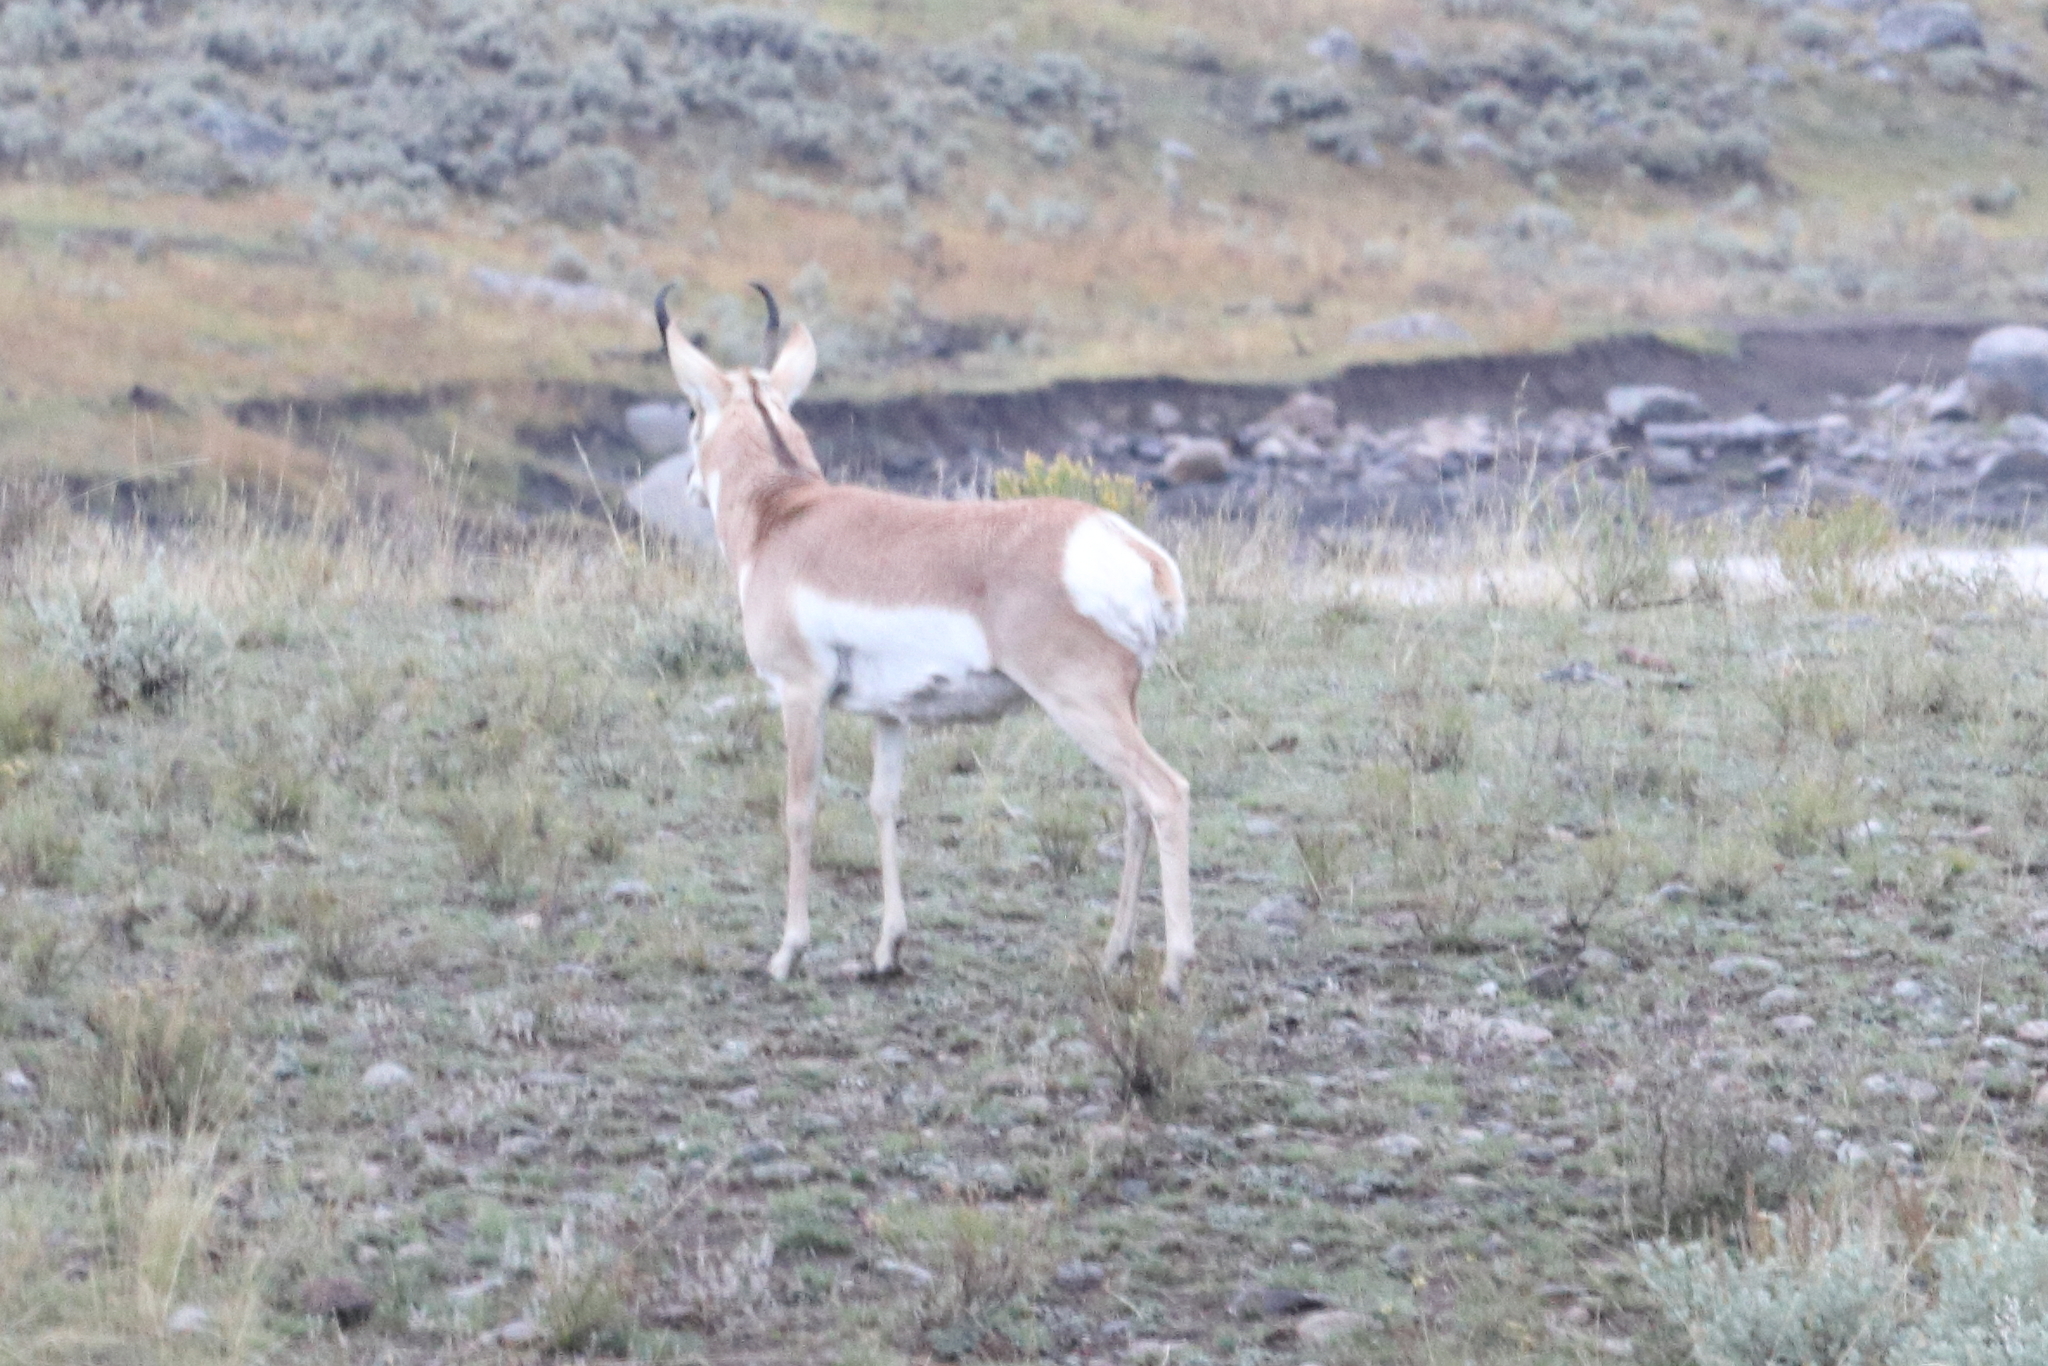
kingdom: Animalia
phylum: Chordata
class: Mammalia
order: Artiodactyla
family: Antilocapridae
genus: Antilocapra
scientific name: Antilocapra americana
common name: Pronghorn
